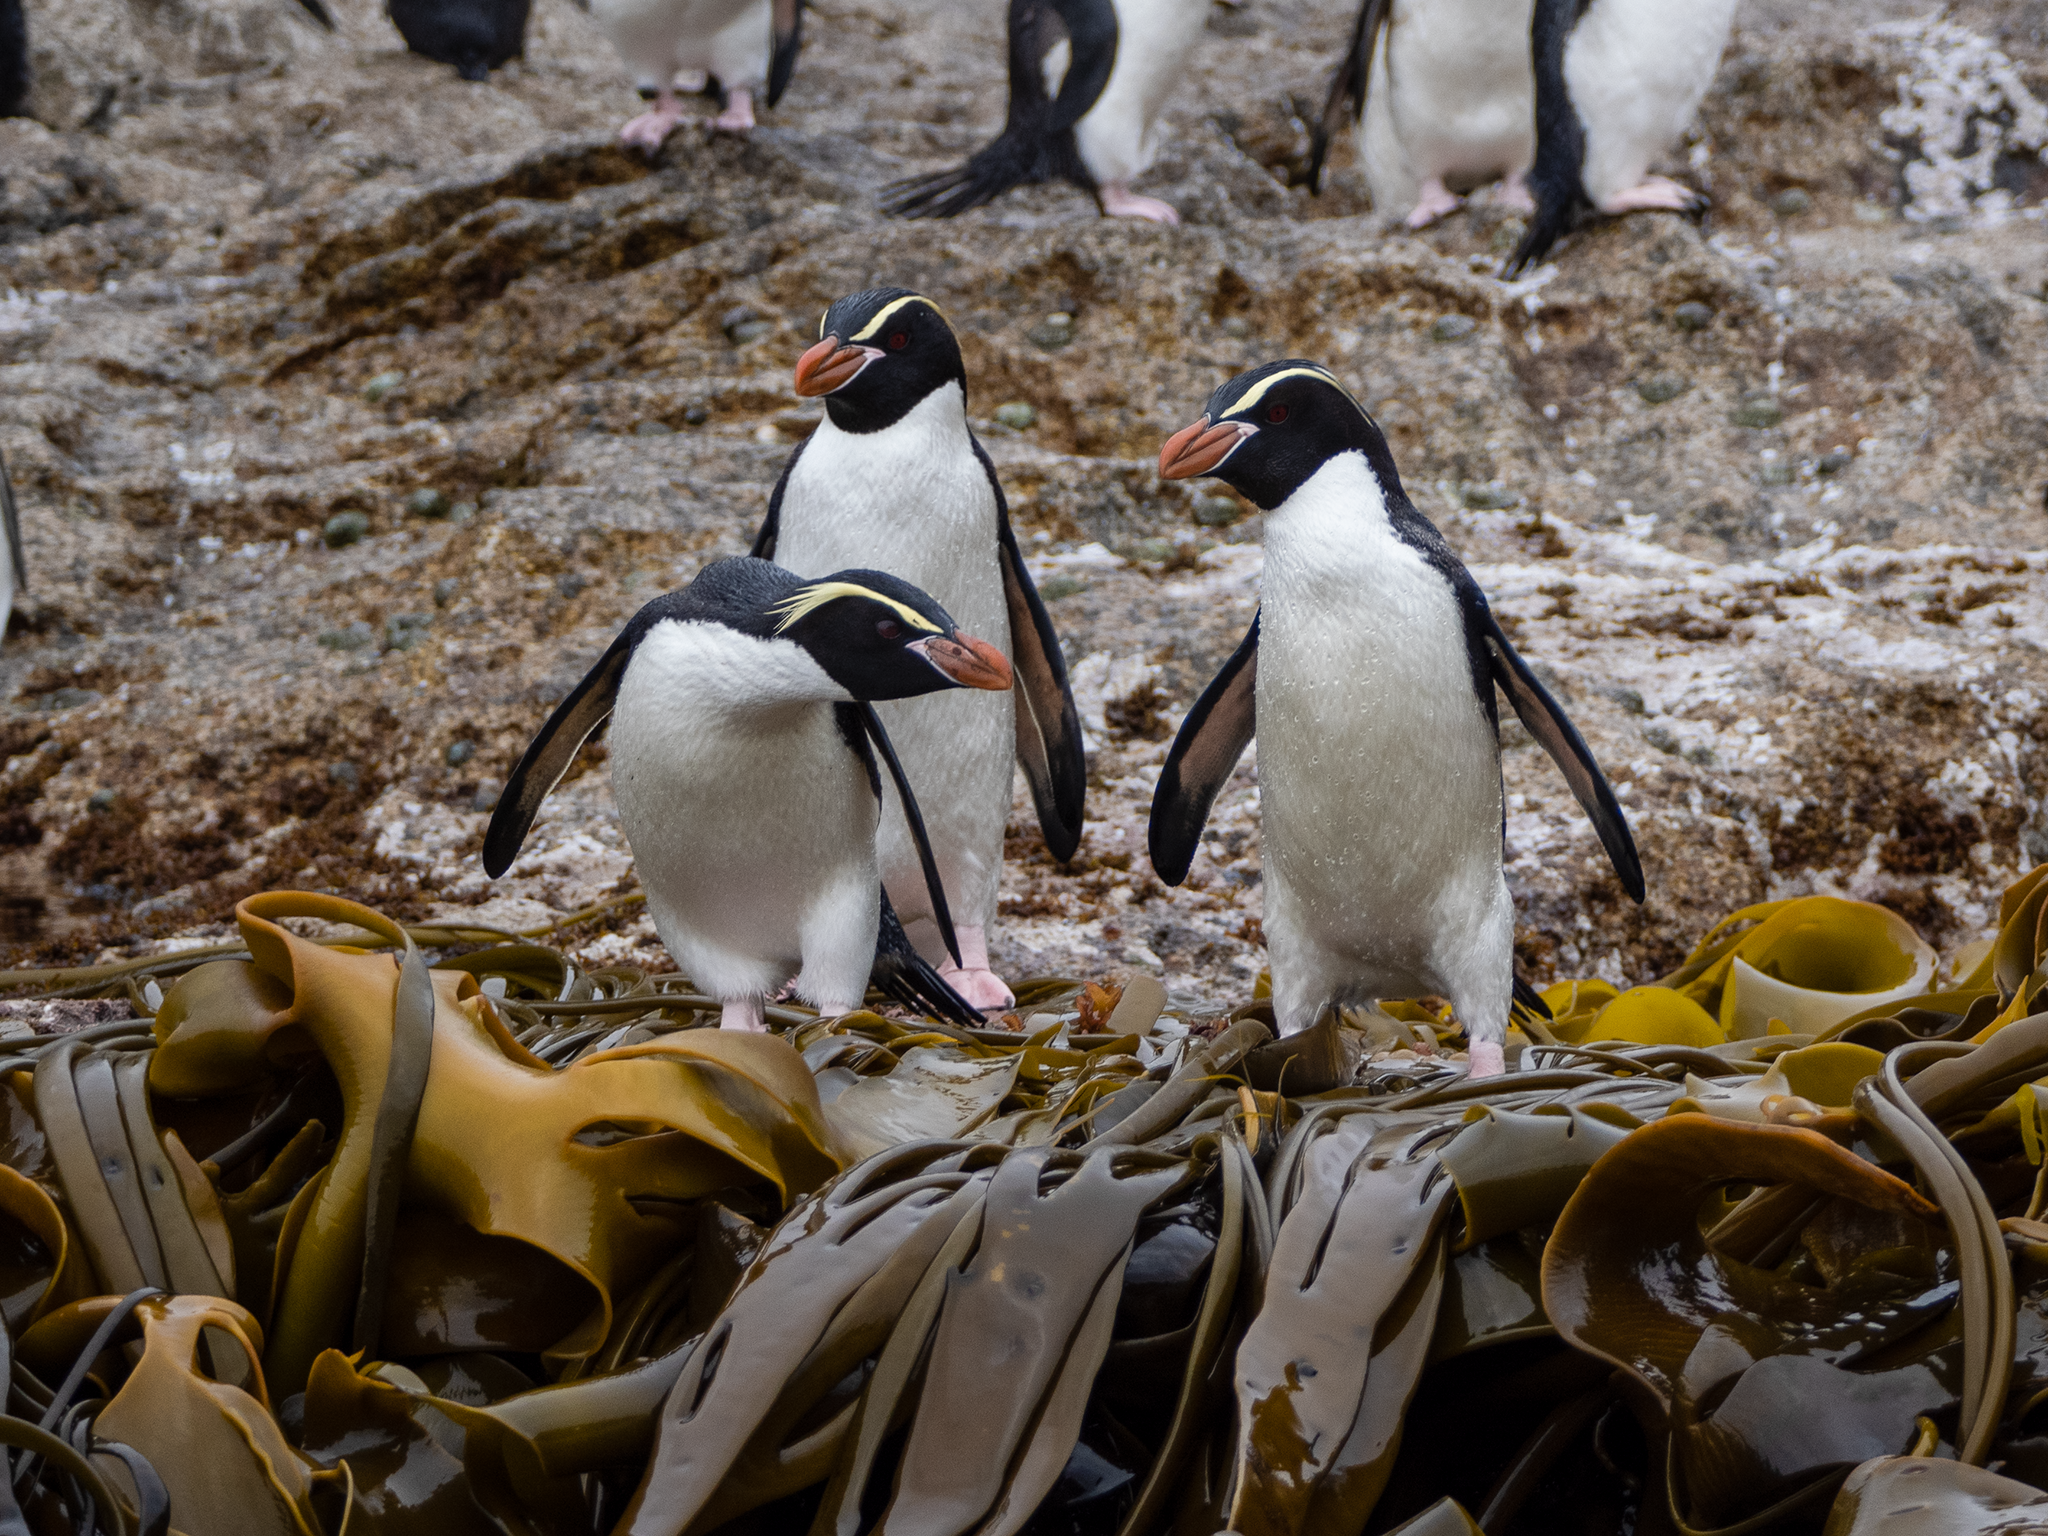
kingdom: Animalia
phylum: Chordata
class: Aves
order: Sphenisciformes
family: Spheniscidae
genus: Eudyptes
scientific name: Eudyptes robustus
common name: Snares penguin
